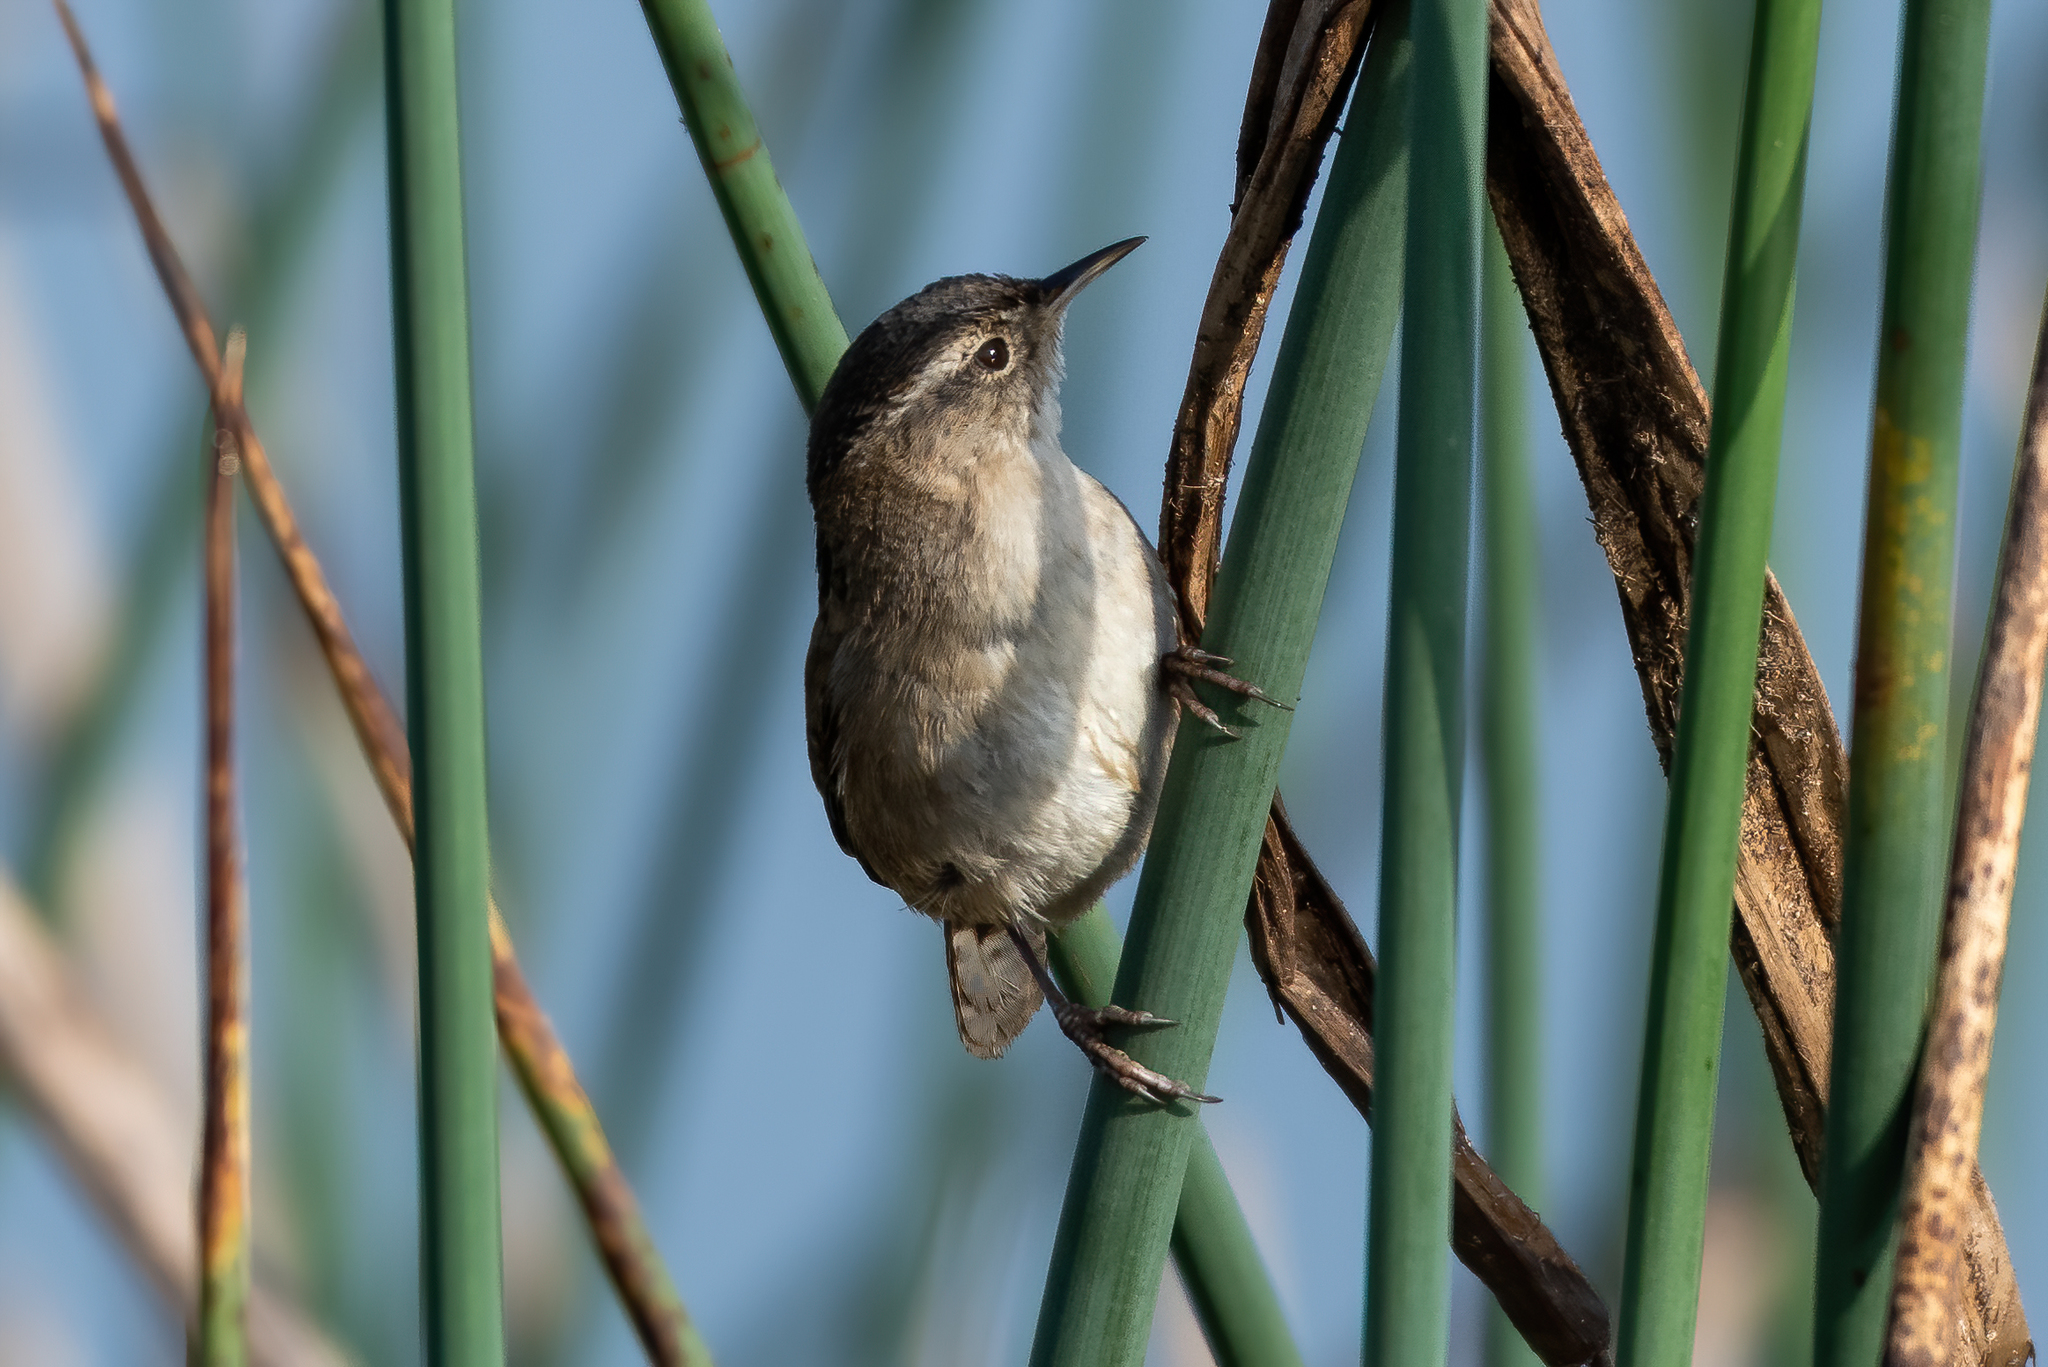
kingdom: Animalia
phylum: Chordata
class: Aves
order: Passeriformes
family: Troglodytidae
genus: Cistothorus
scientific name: Cistothorus palustris
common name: Marsh wren
